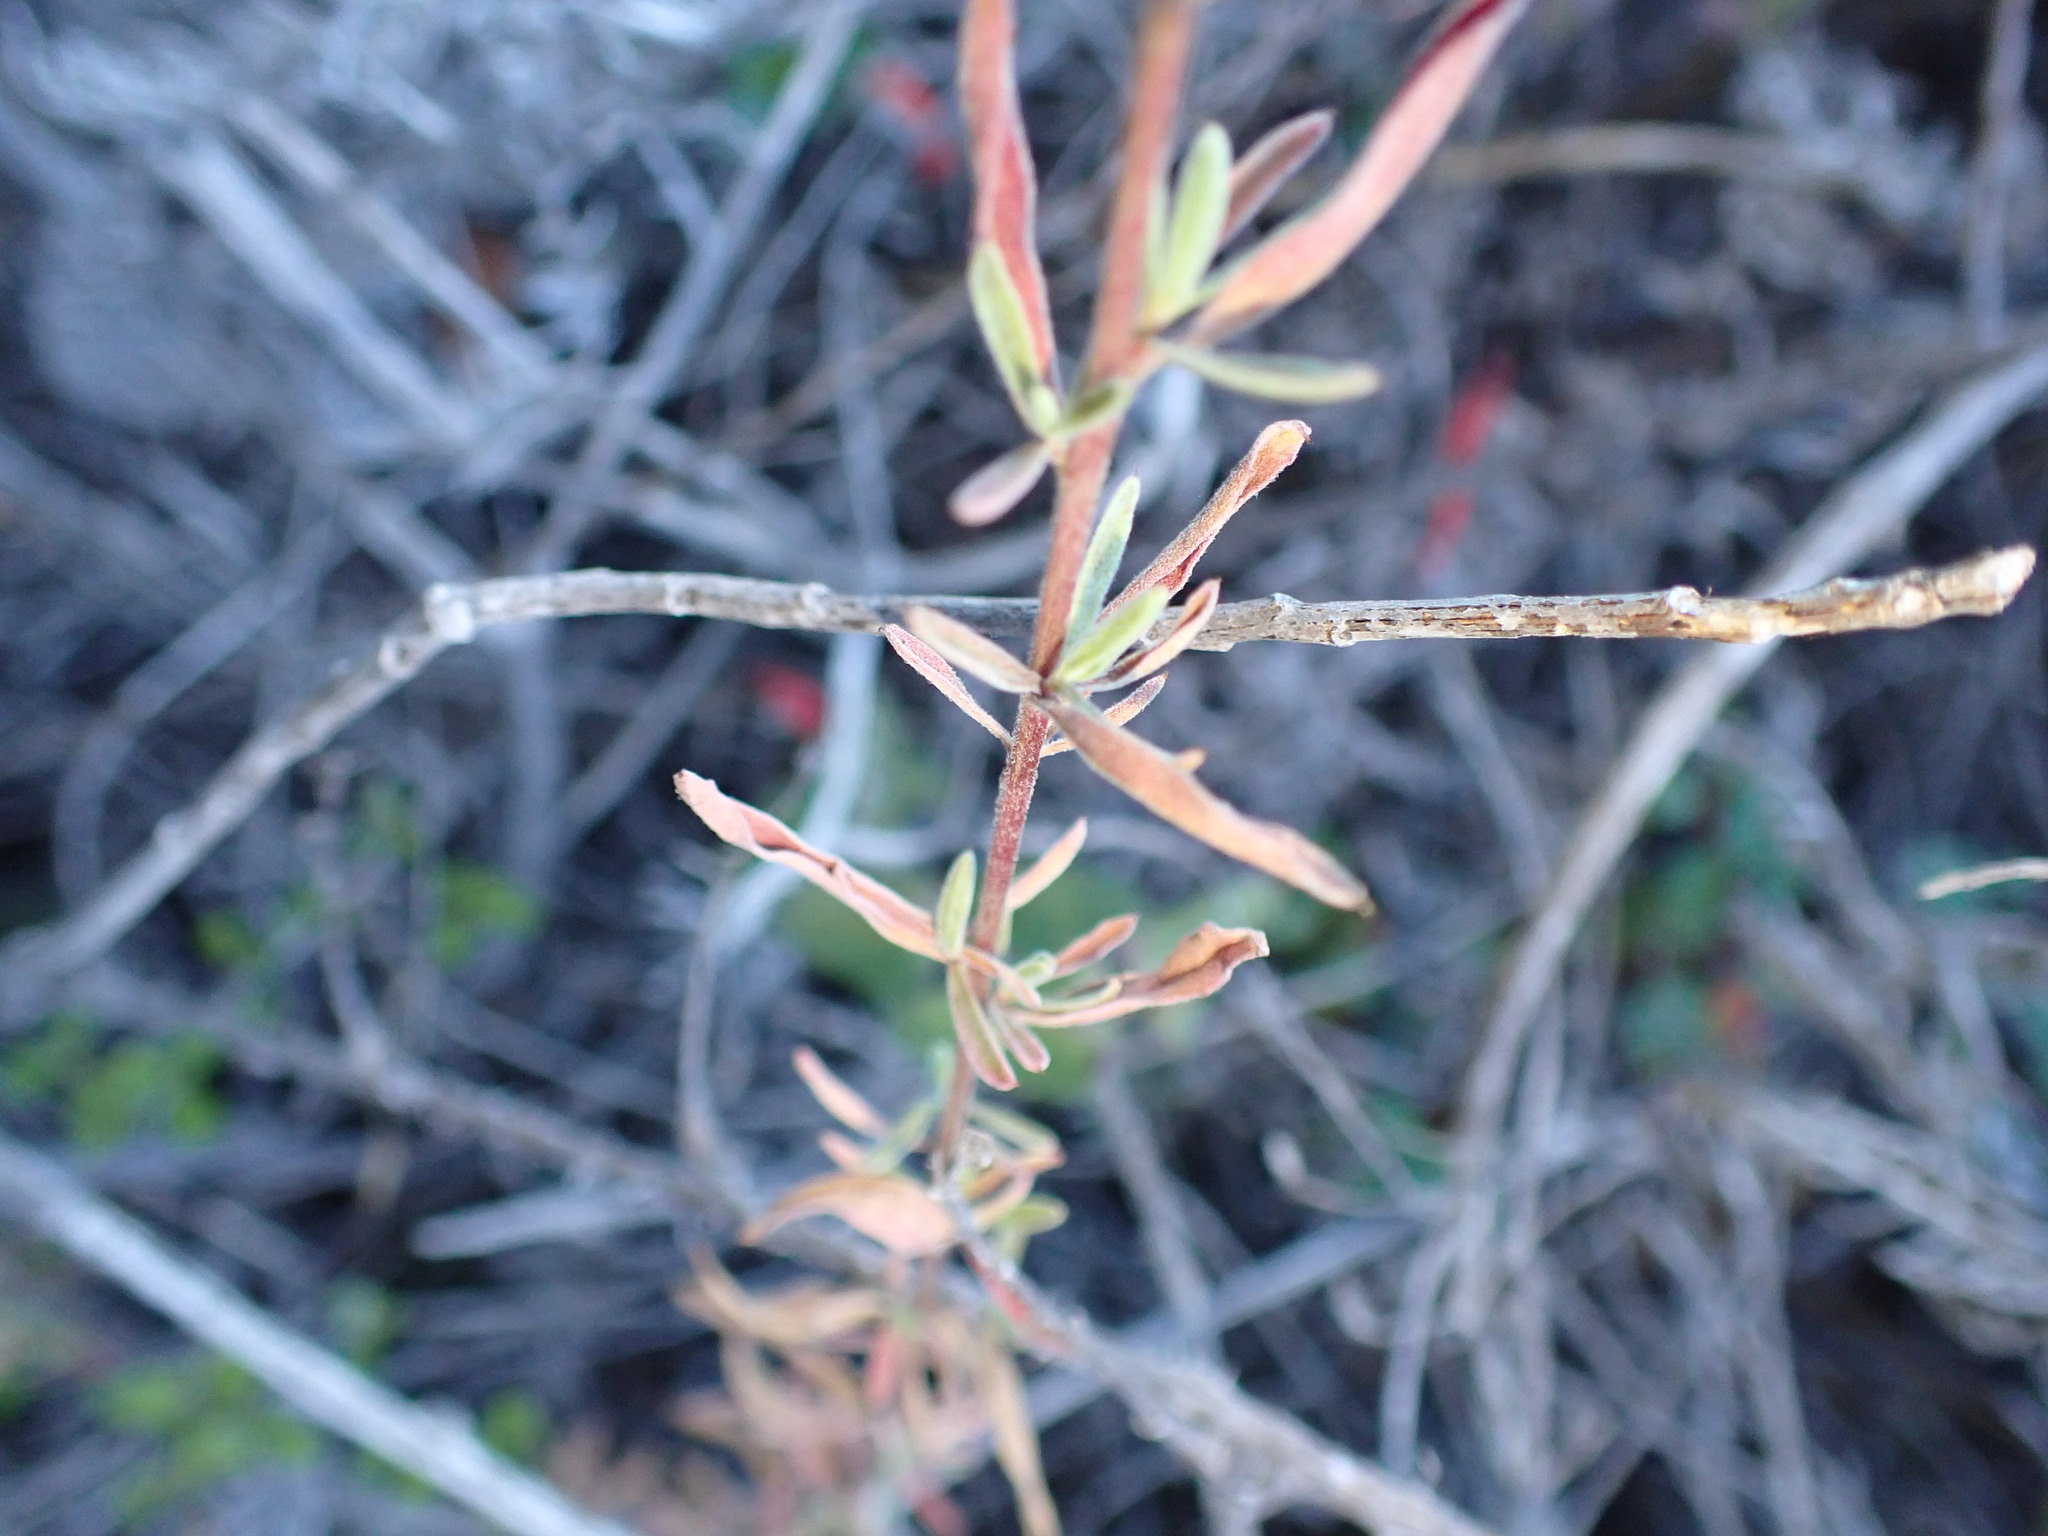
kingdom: Plantae
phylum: Tracheophyta
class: Magnoliopsida
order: Myrtales
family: Onagraceae
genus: Epilobium
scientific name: Epilobium canum
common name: California-fuchsia
